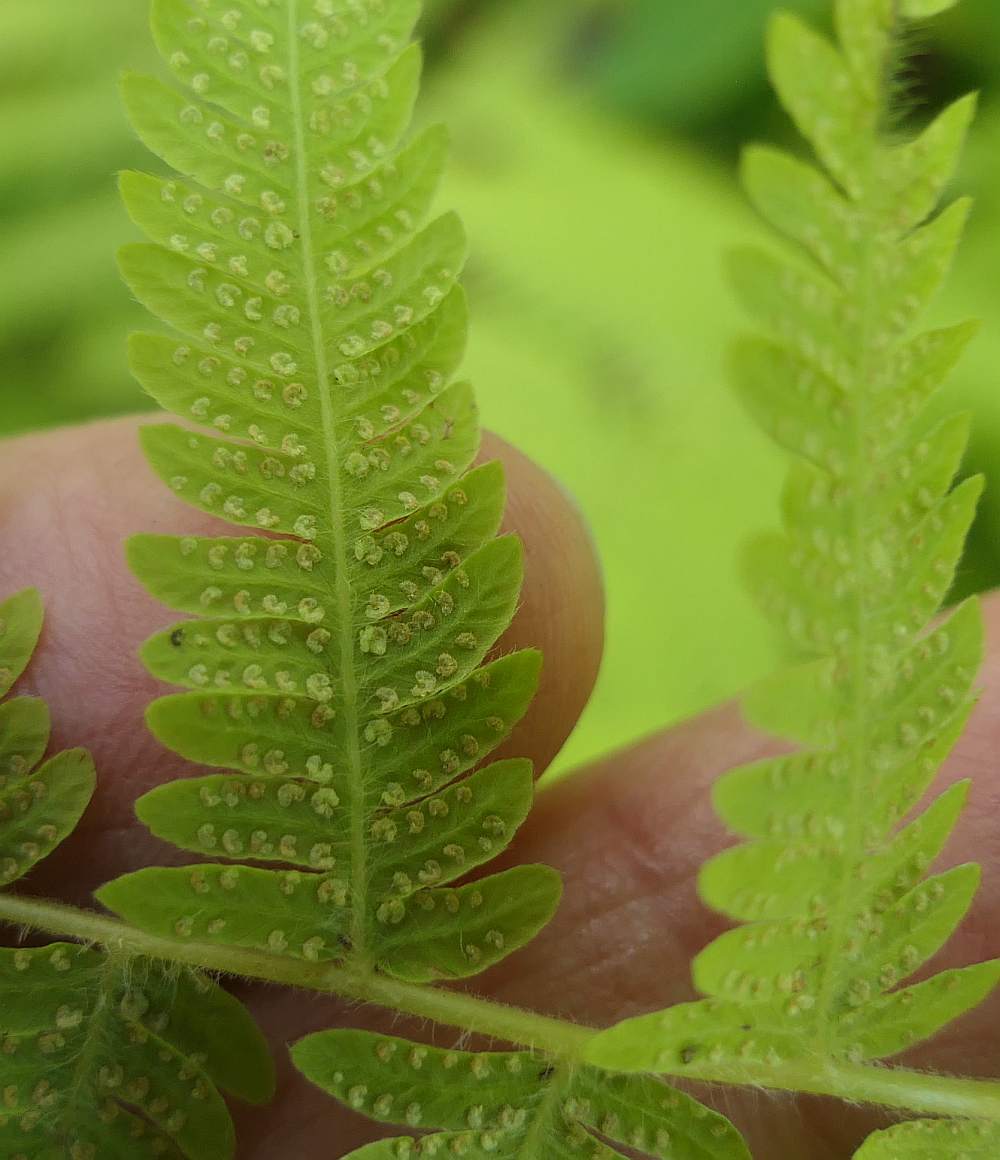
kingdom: Plantae
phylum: Tracheophyta
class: Polypodiopsida
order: Polypodiales
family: Thelypteridaceae
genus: Amauropelta
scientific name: Amauropelta noveboracensis
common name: New york fern
